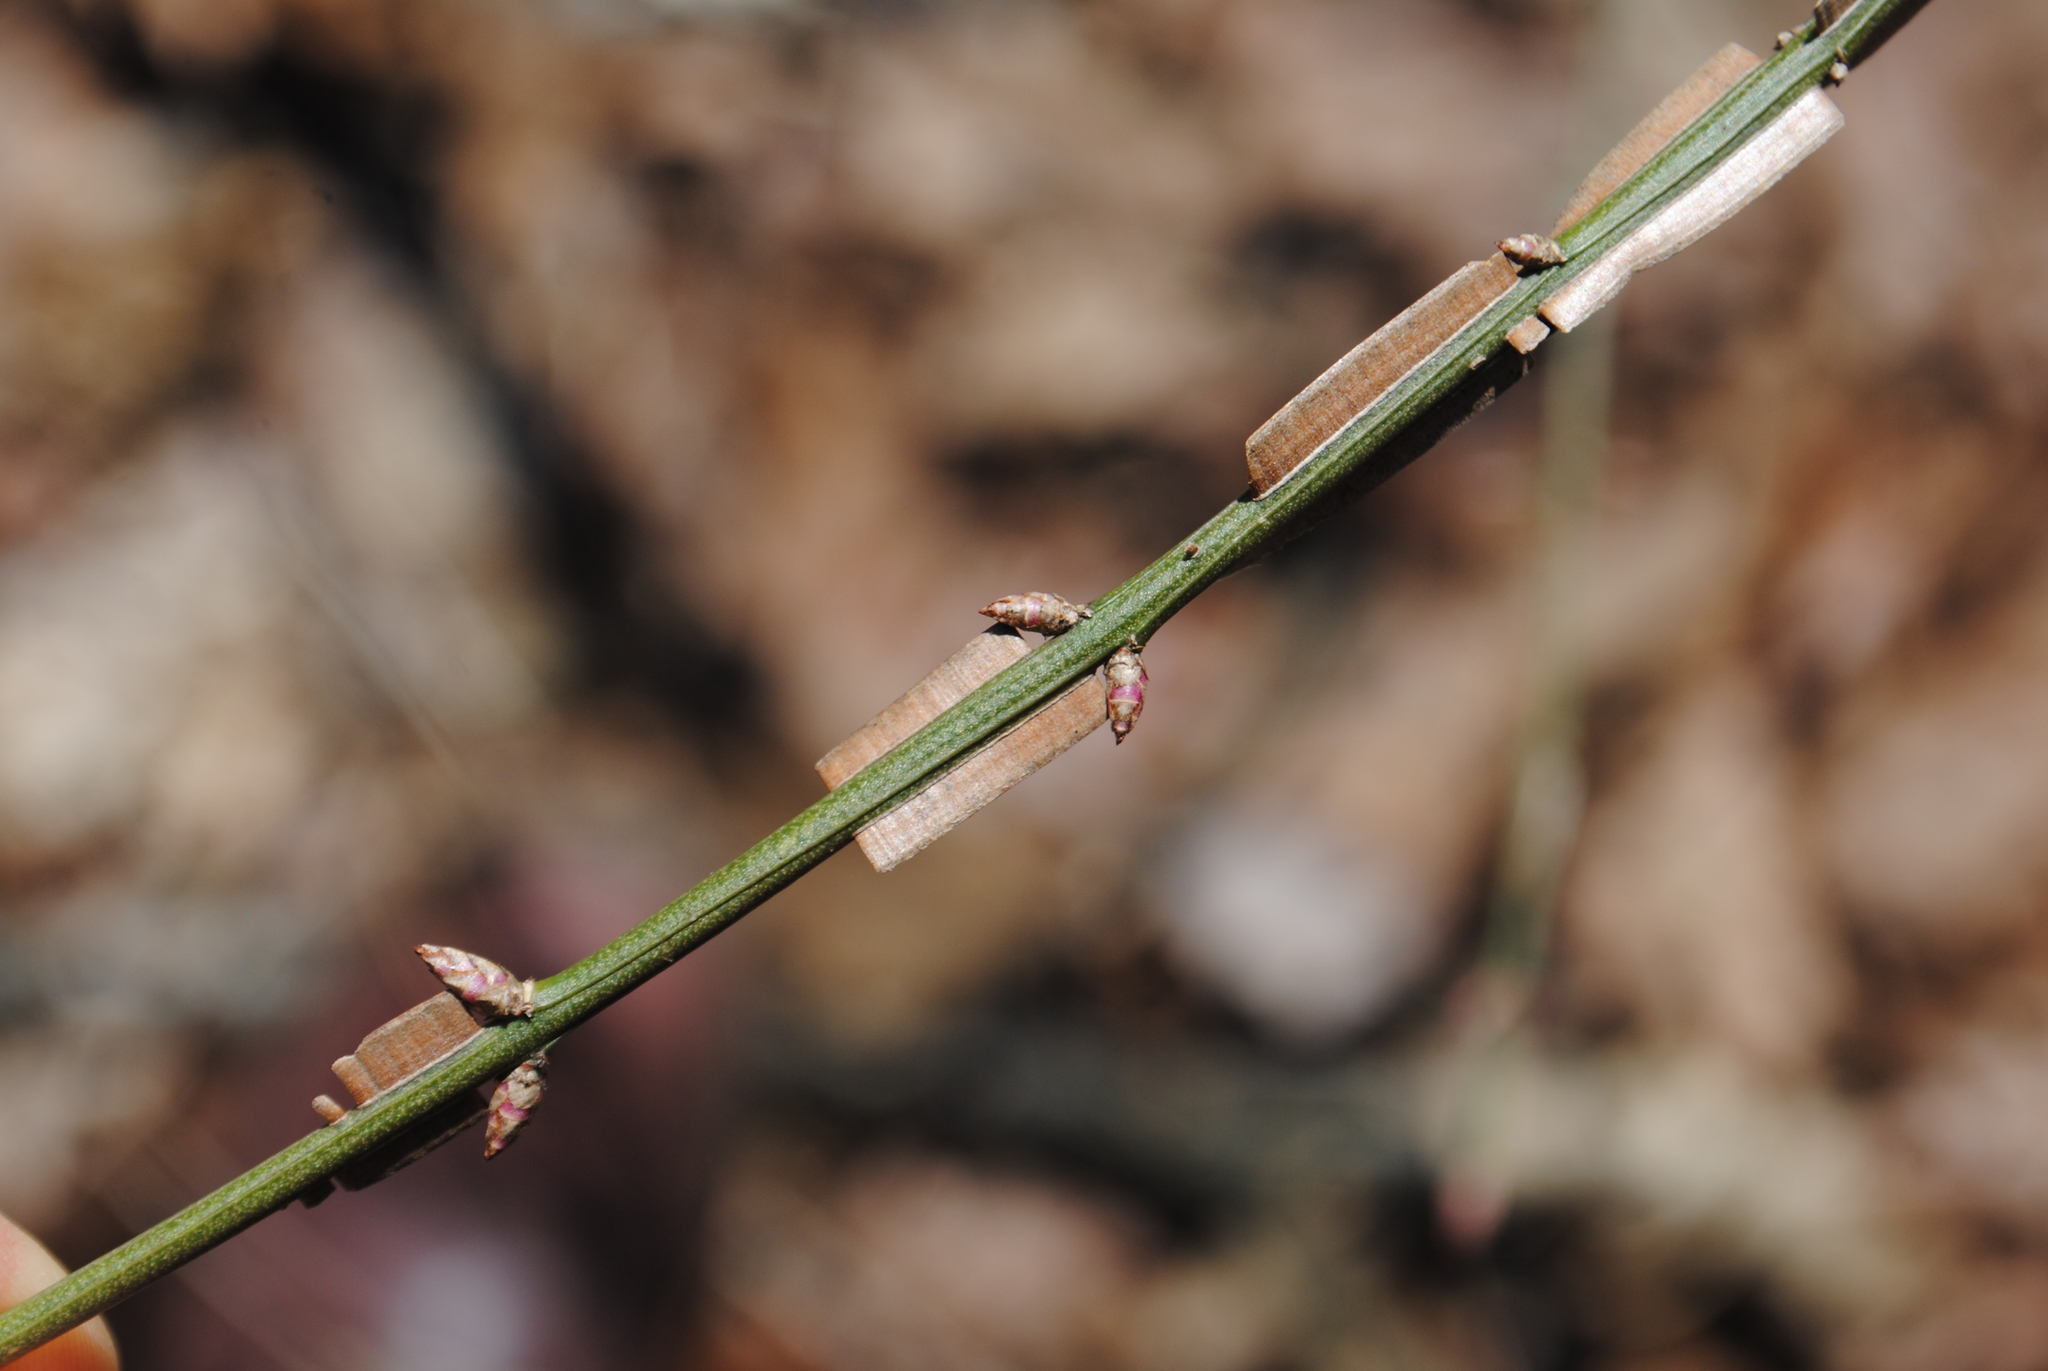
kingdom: Plantae
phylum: Tracheophyta
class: Magnoliopsida
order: Celastrales
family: Celastraceae
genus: Euonymus
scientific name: Euonymus alatus
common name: Winged euonymus
